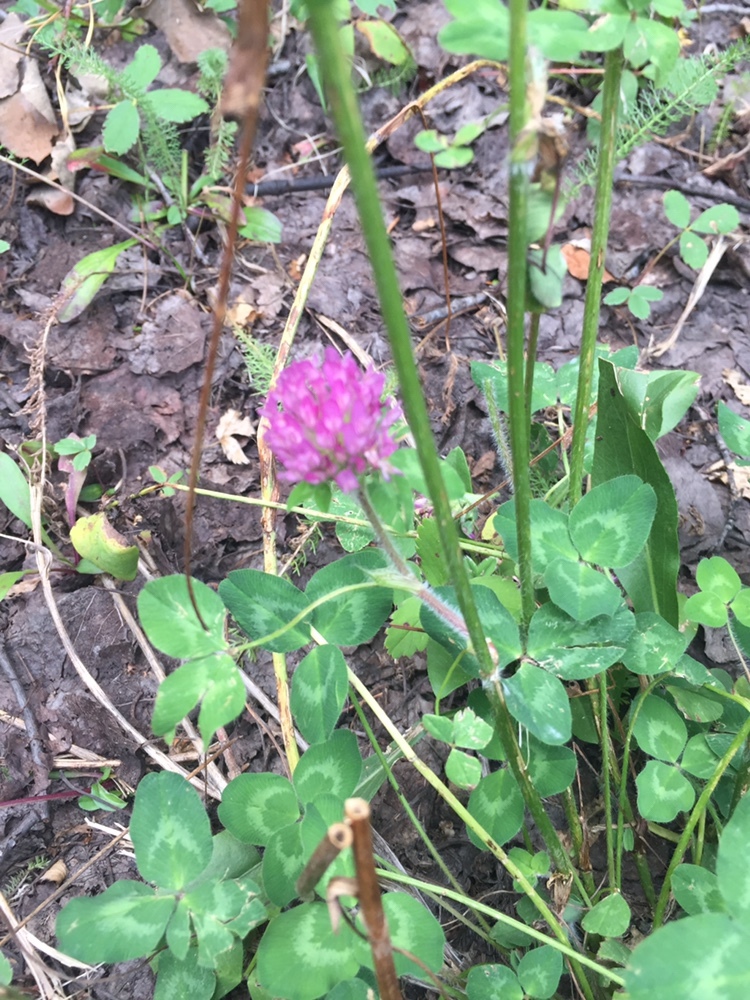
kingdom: Plantae
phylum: Tracheophyta
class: Magnoliopsida
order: Fabales
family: Fabaceae
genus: Trifolium
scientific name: Trifolium pratense
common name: Red clover
